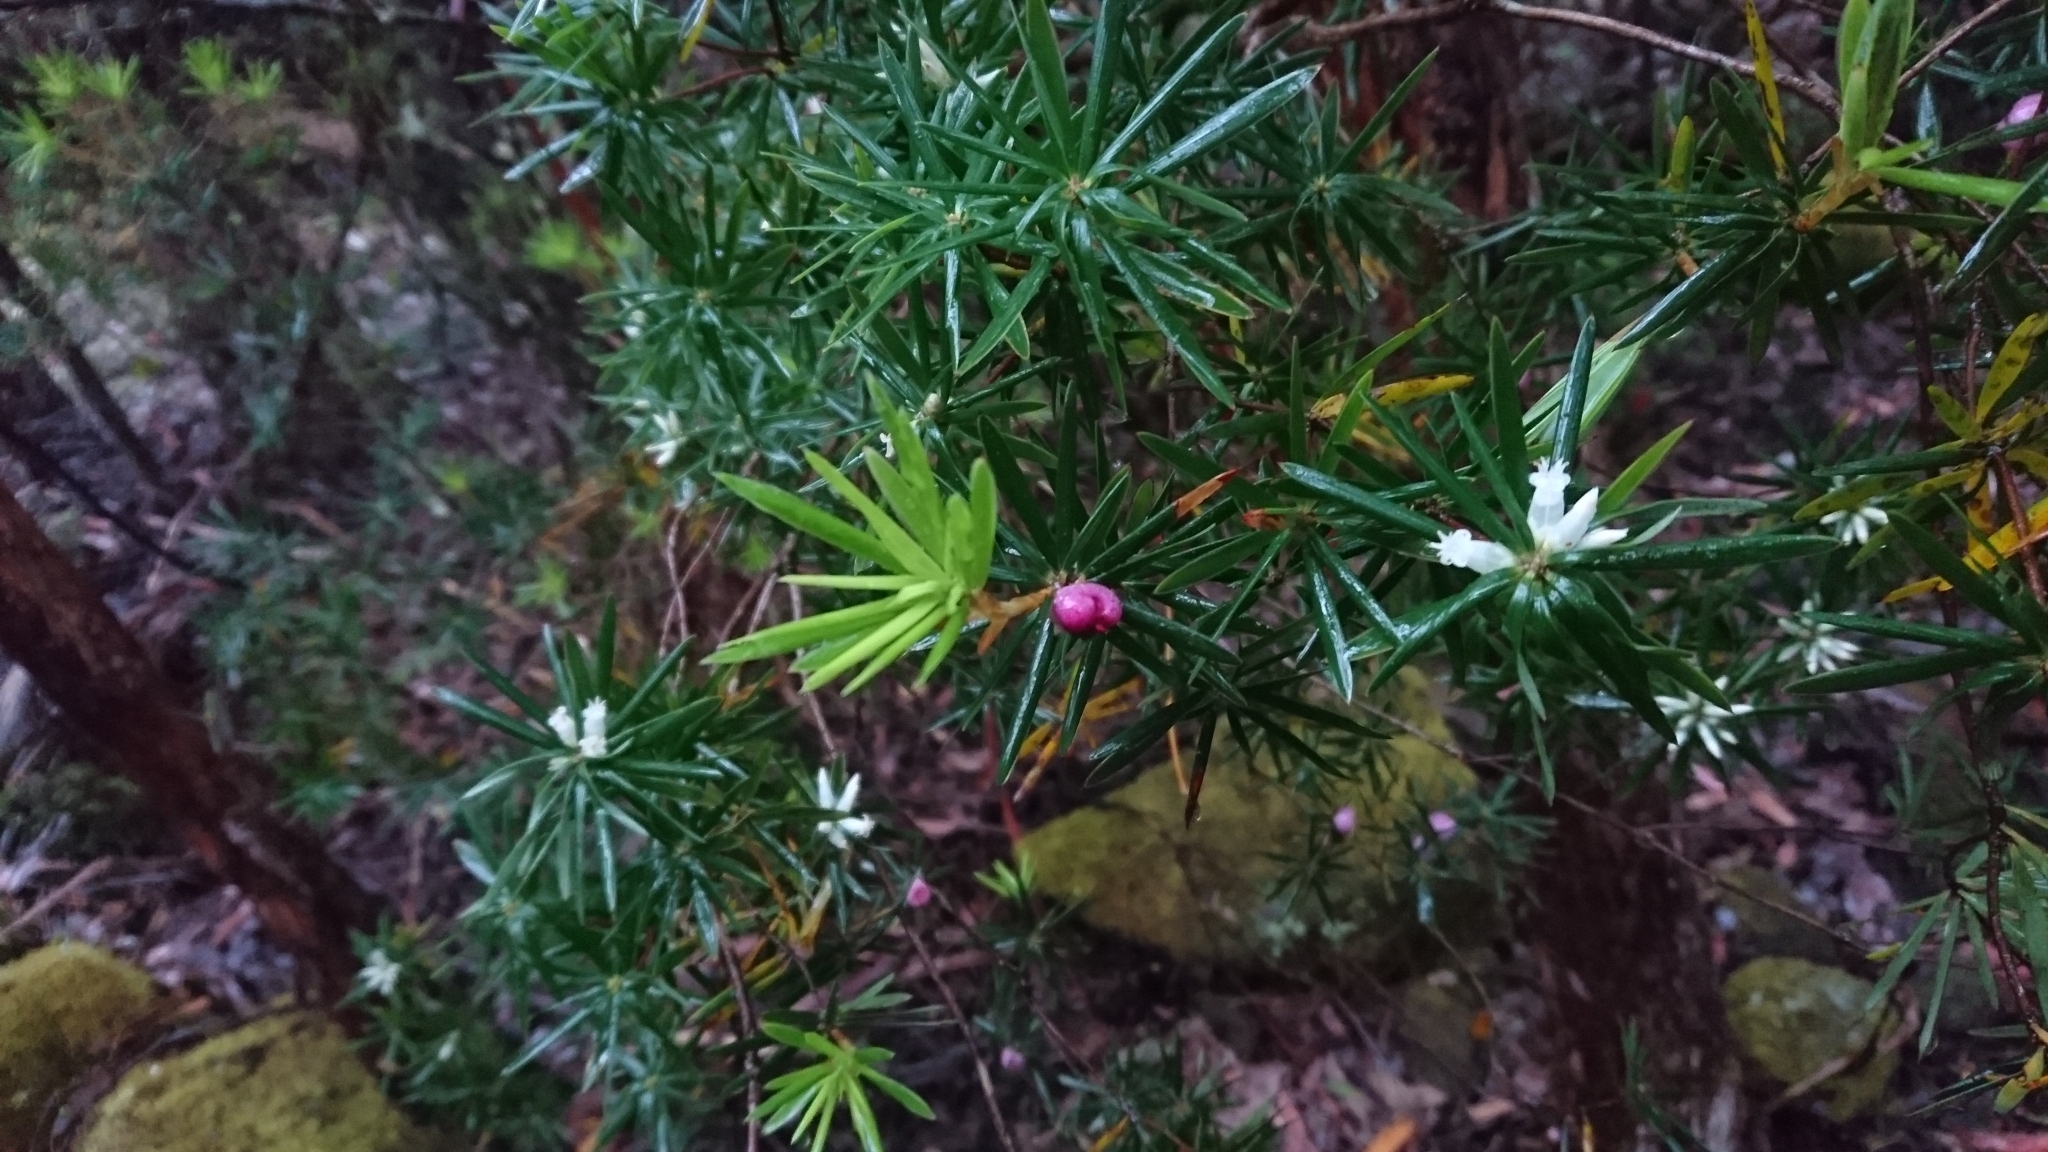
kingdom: Plantae
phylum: Tracheophyta
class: Magnoliopsida
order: Ericales
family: Ericaceae
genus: Cyathodes
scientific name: Cyathodes glauca
